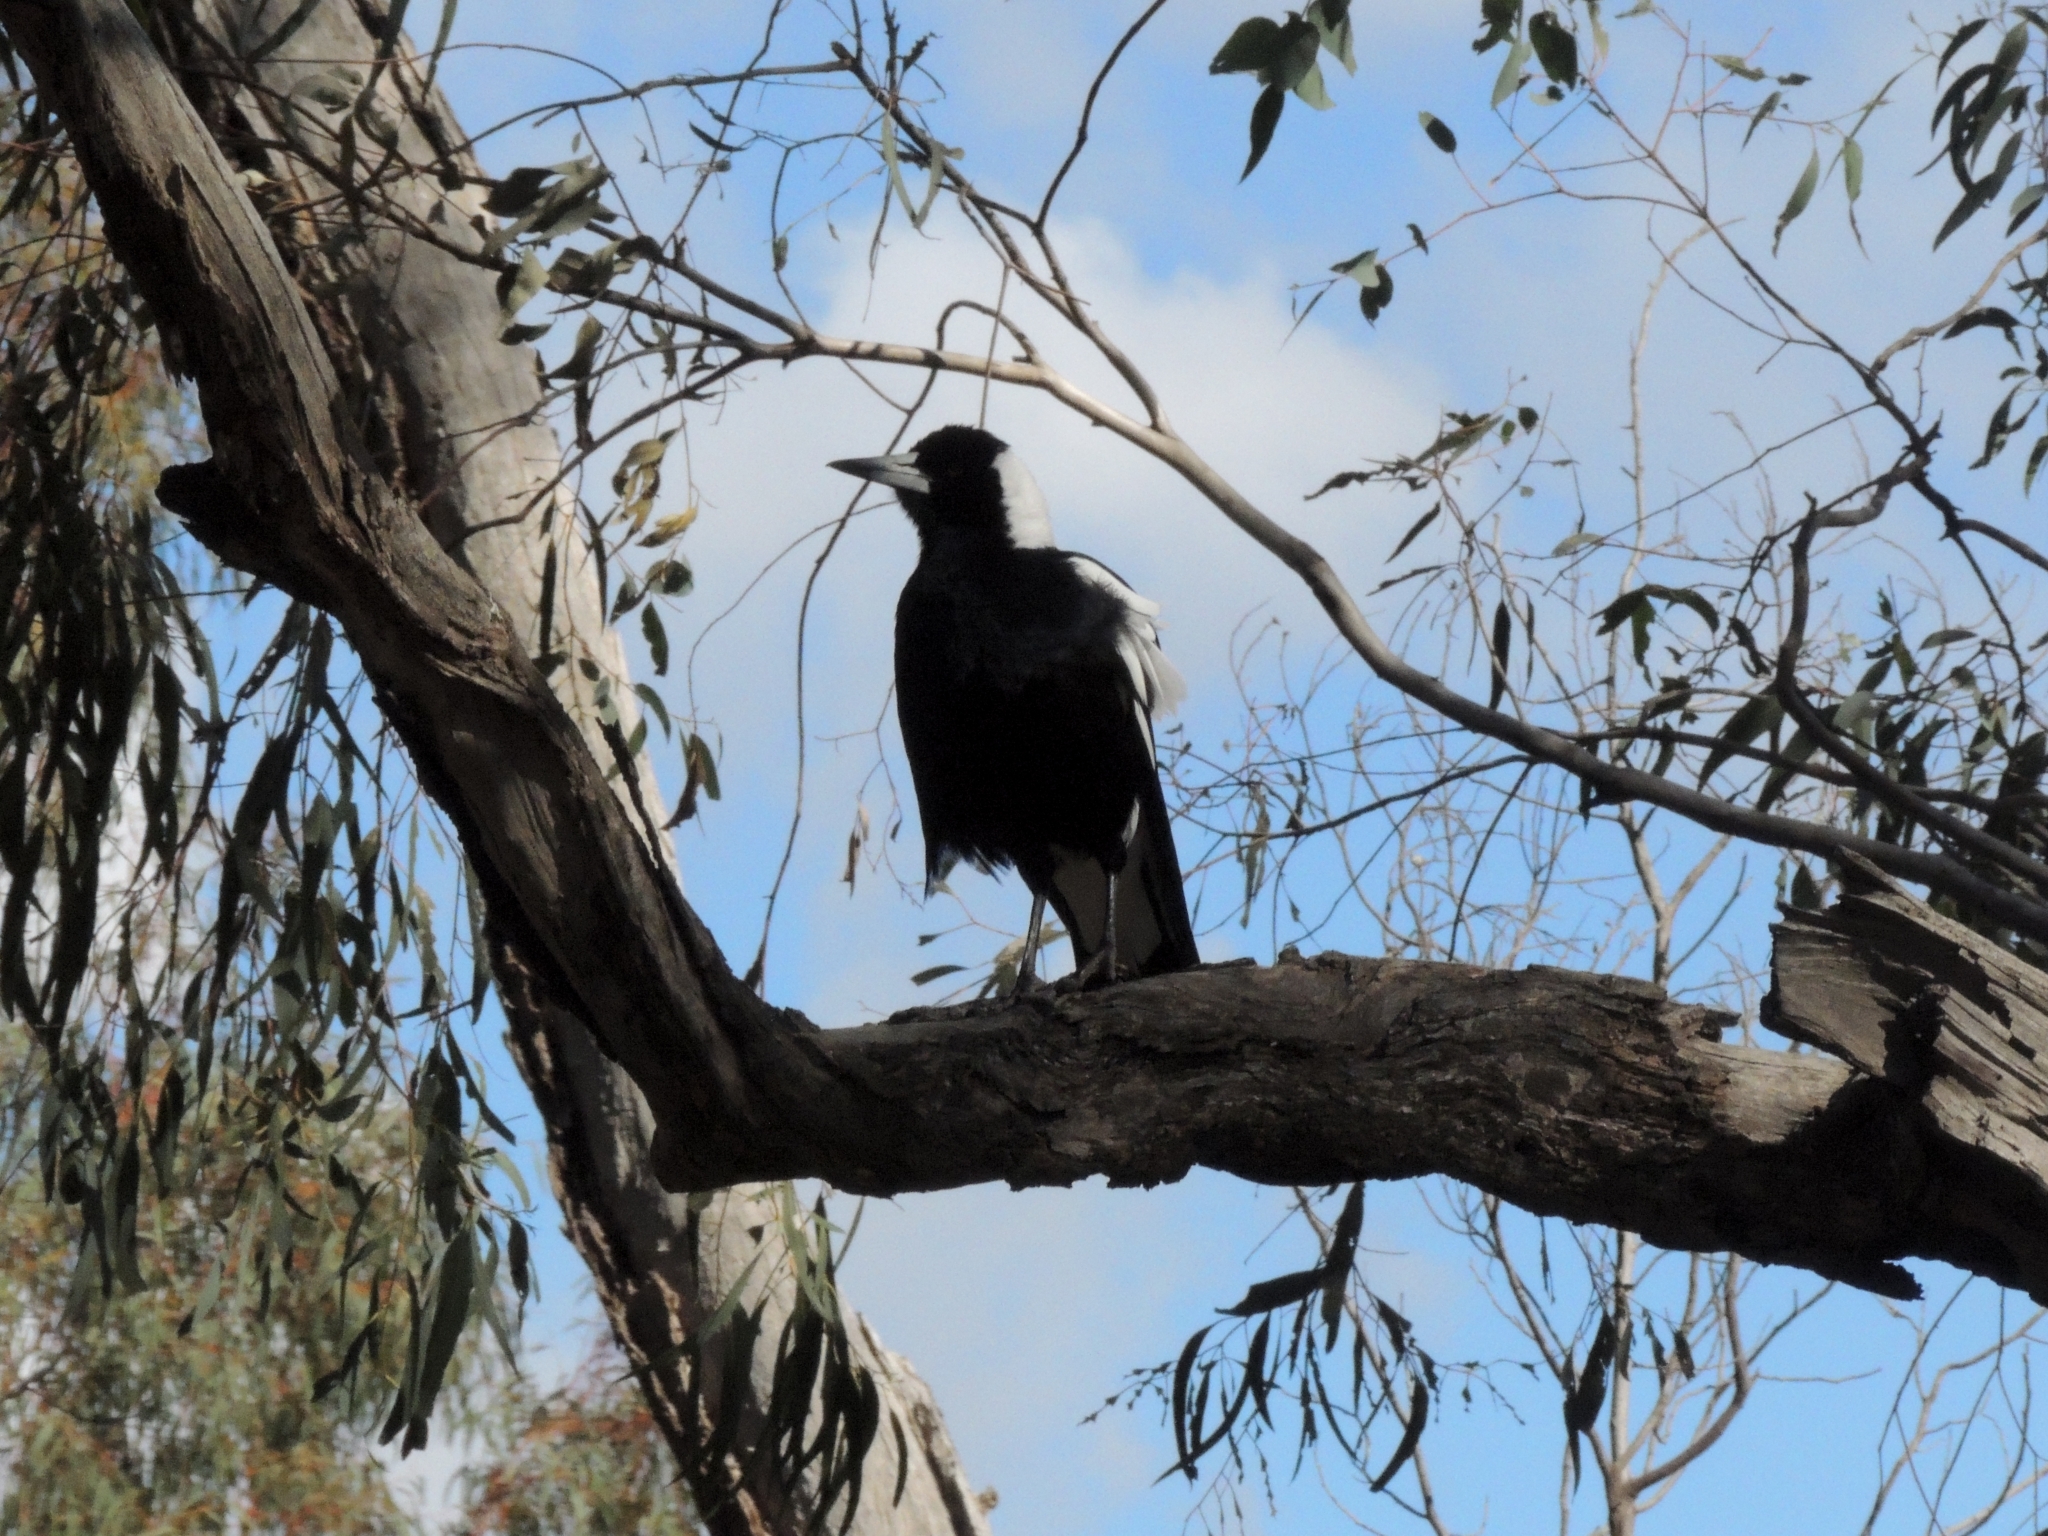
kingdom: Animalia
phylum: Chordata
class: Aves
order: Passeriformes
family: Cracticidae
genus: Gymnorhina
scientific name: Gymnorhina tibicen
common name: Australian magpie
